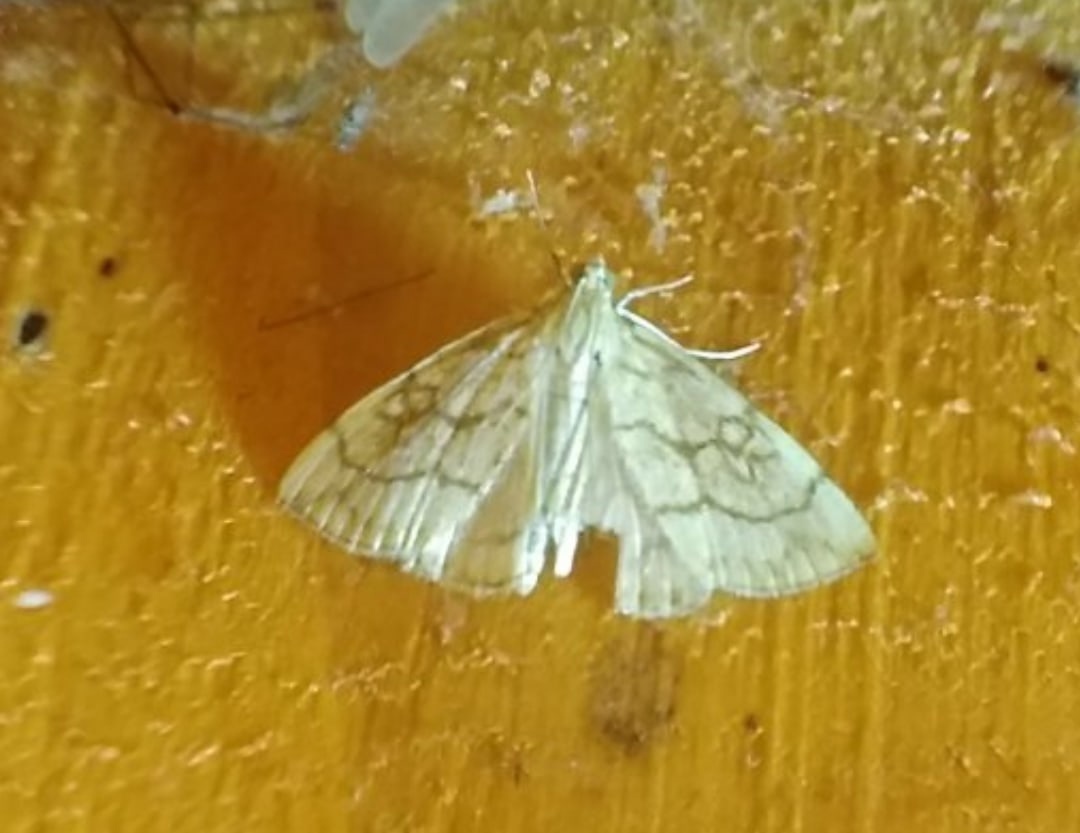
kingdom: Animalia
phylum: Arthropoda
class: Insecta
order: Lepidoptera
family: Crambidae
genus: Evergestis
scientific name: Evergestis pallidata
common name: Chequered pearl
